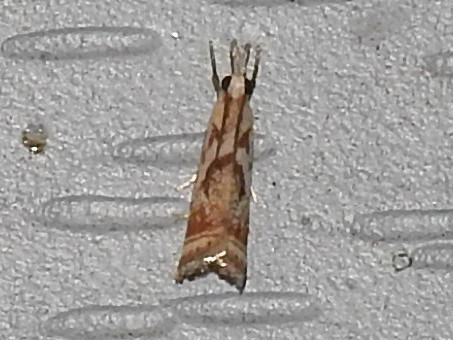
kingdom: Animalia
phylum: Arthropoda
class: Insecta
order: Lepidoptera
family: Crambidae
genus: Microcrambus
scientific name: Microcrambus elegans
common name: Elegant grass-veneer
